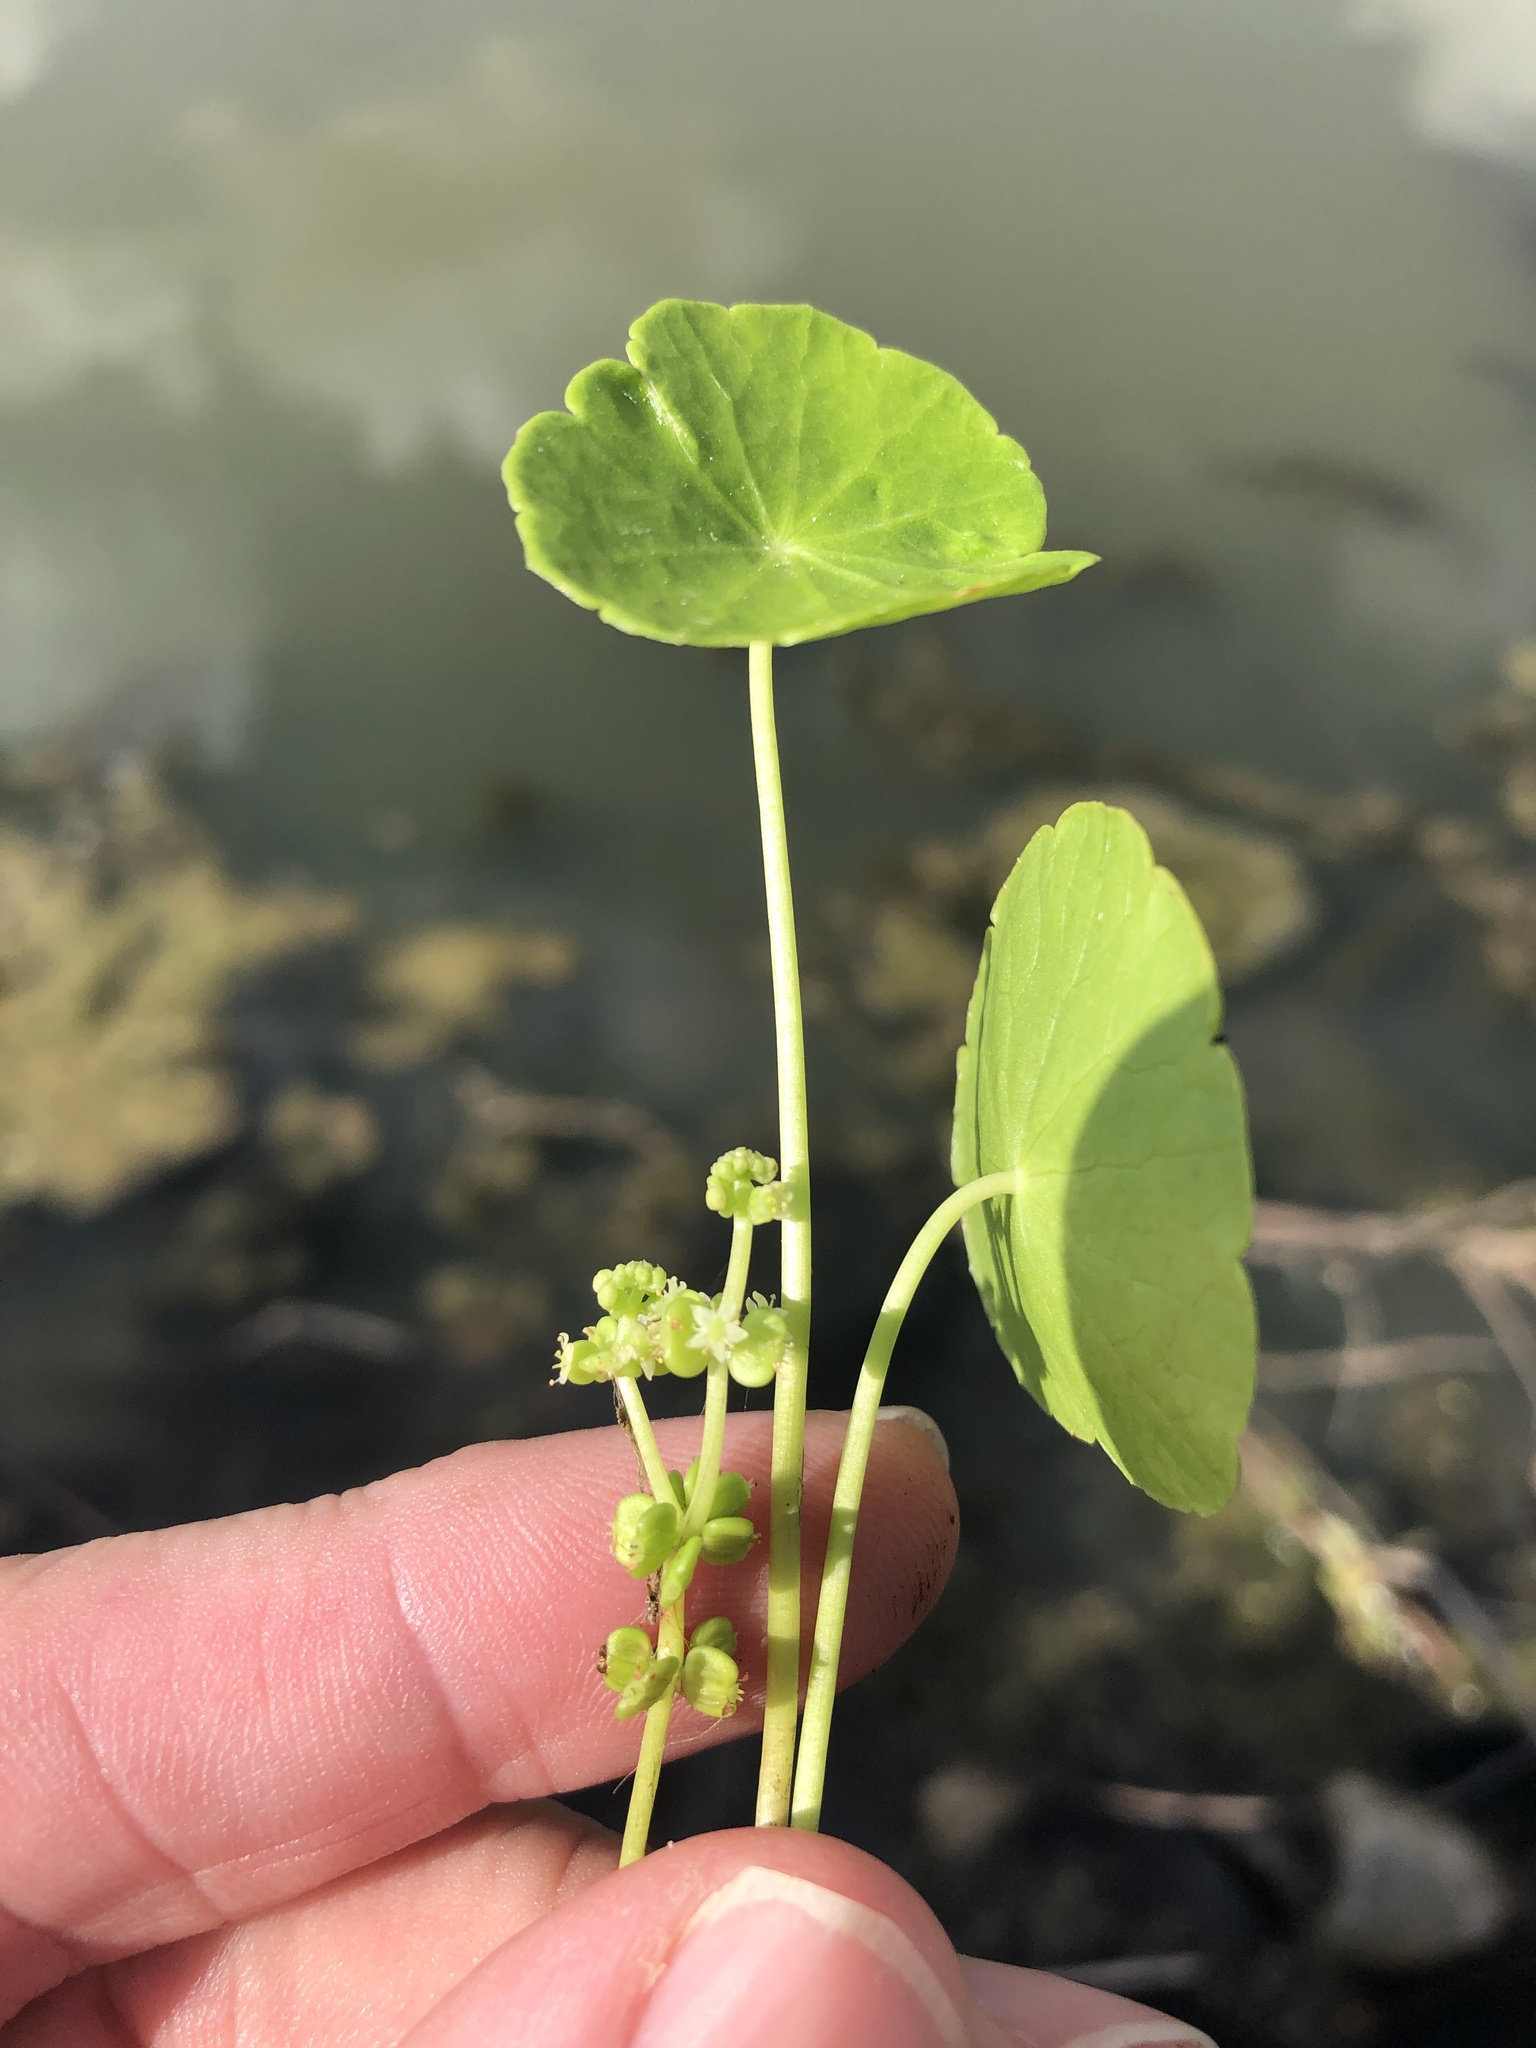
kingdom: Plantae
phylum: Tracheophyta
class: Magnoliopsida
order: Apiales
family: Araliaceae
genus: Hydrocotyle
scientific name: Hydrocotyle verticillata
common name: Whorled marshpennywort
